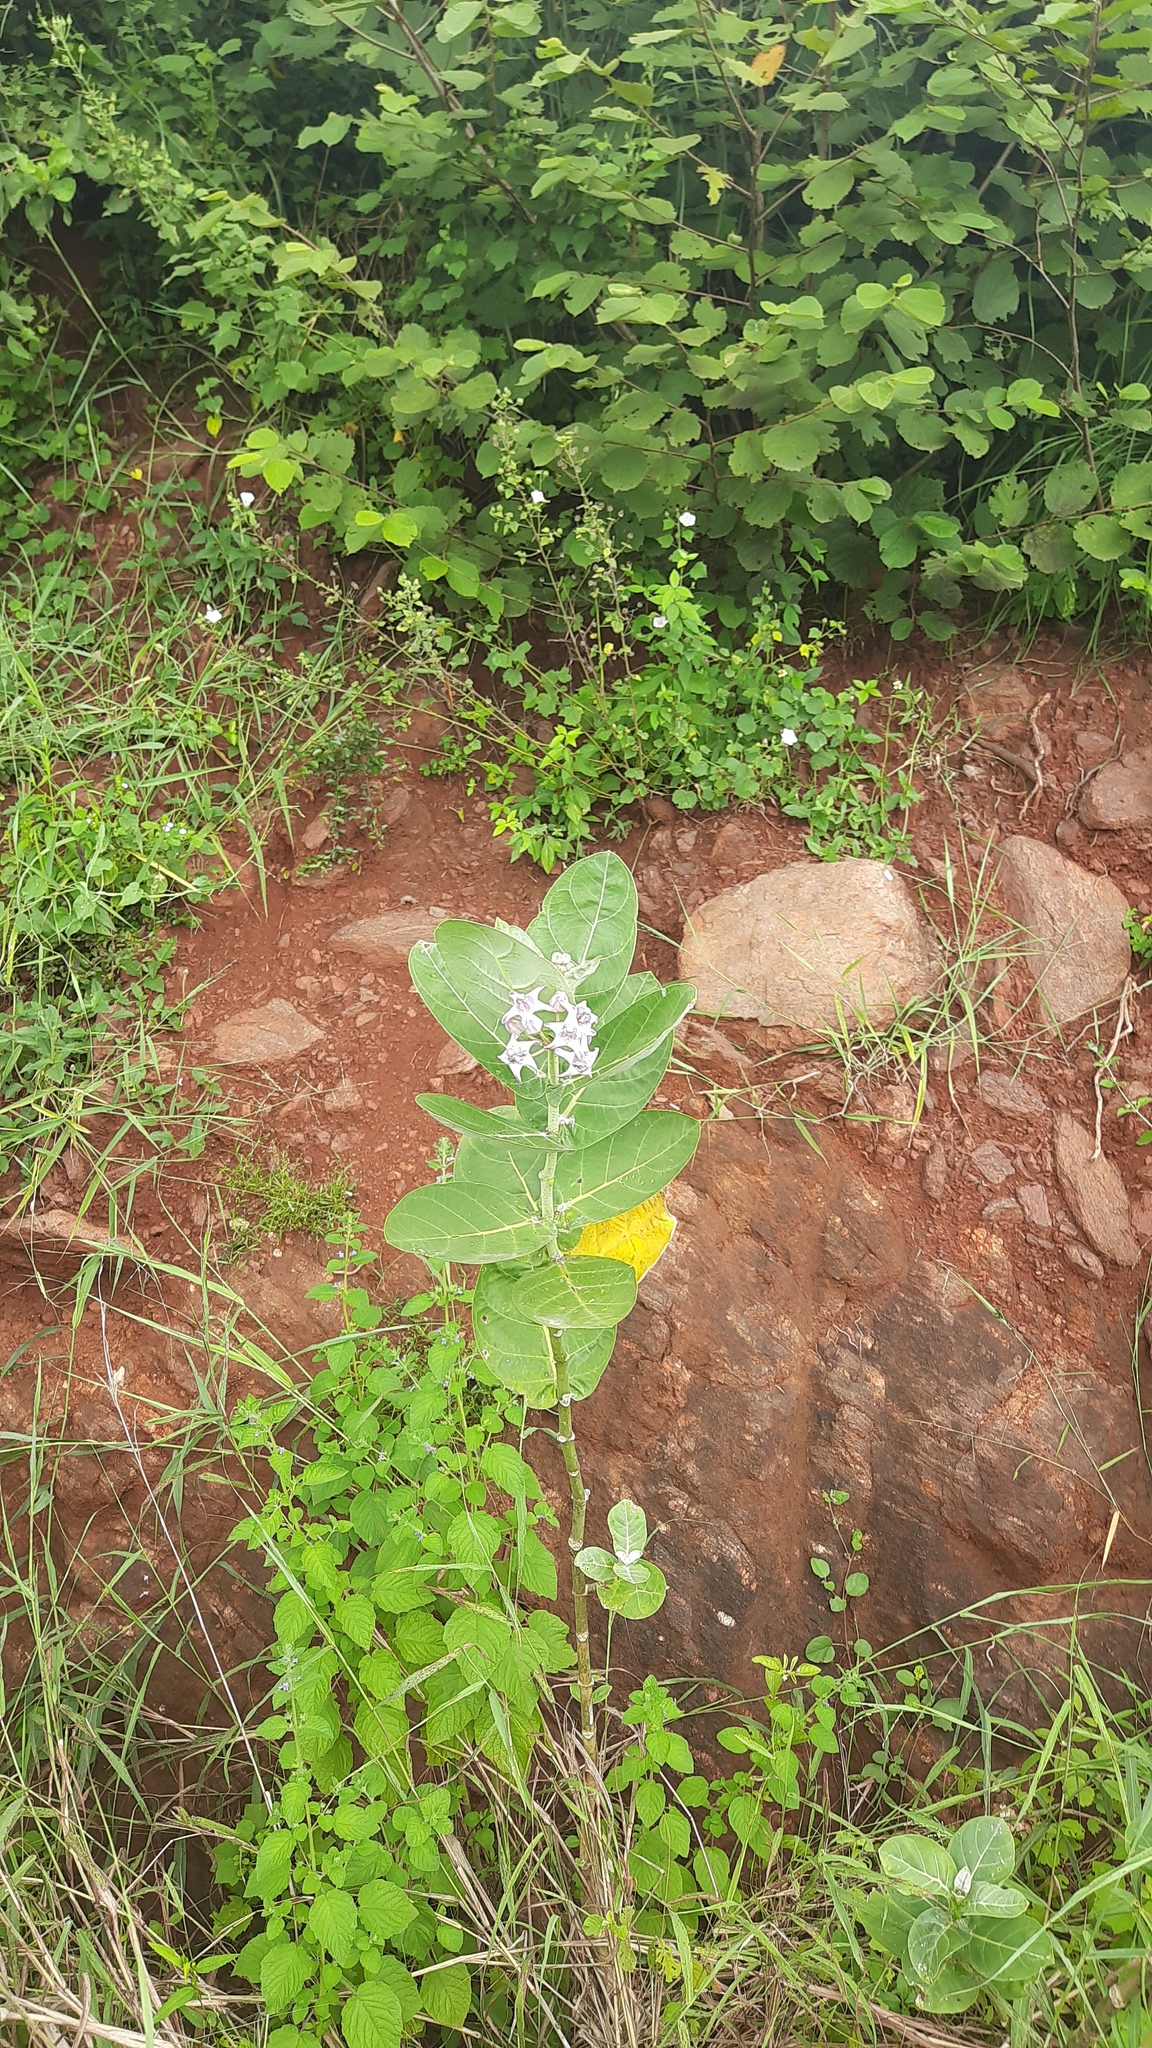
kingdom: Plantae
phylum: Tracheophyta
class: Magnoliopsida
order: Gentianales
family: Apocynaceae
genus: Calotropis
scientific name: Calotropis gigantea
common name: Crown flower
